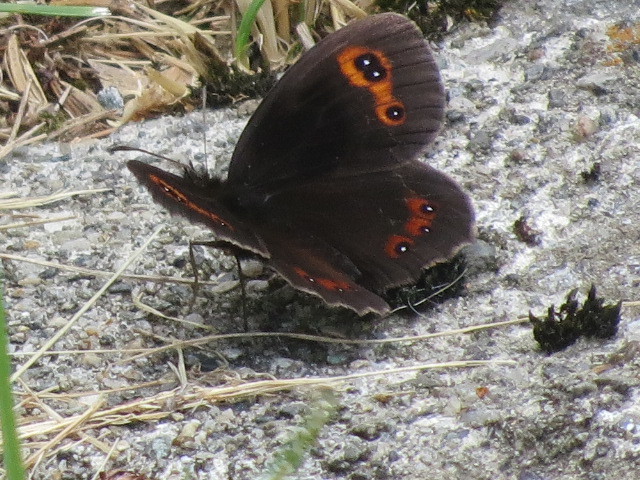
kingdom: Animalia
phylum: Arthropoda
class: Insecta
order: Lepidoptera
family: Nymphalidae
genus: Erebia
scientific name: Erebia aethiops
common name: Scotch argus
